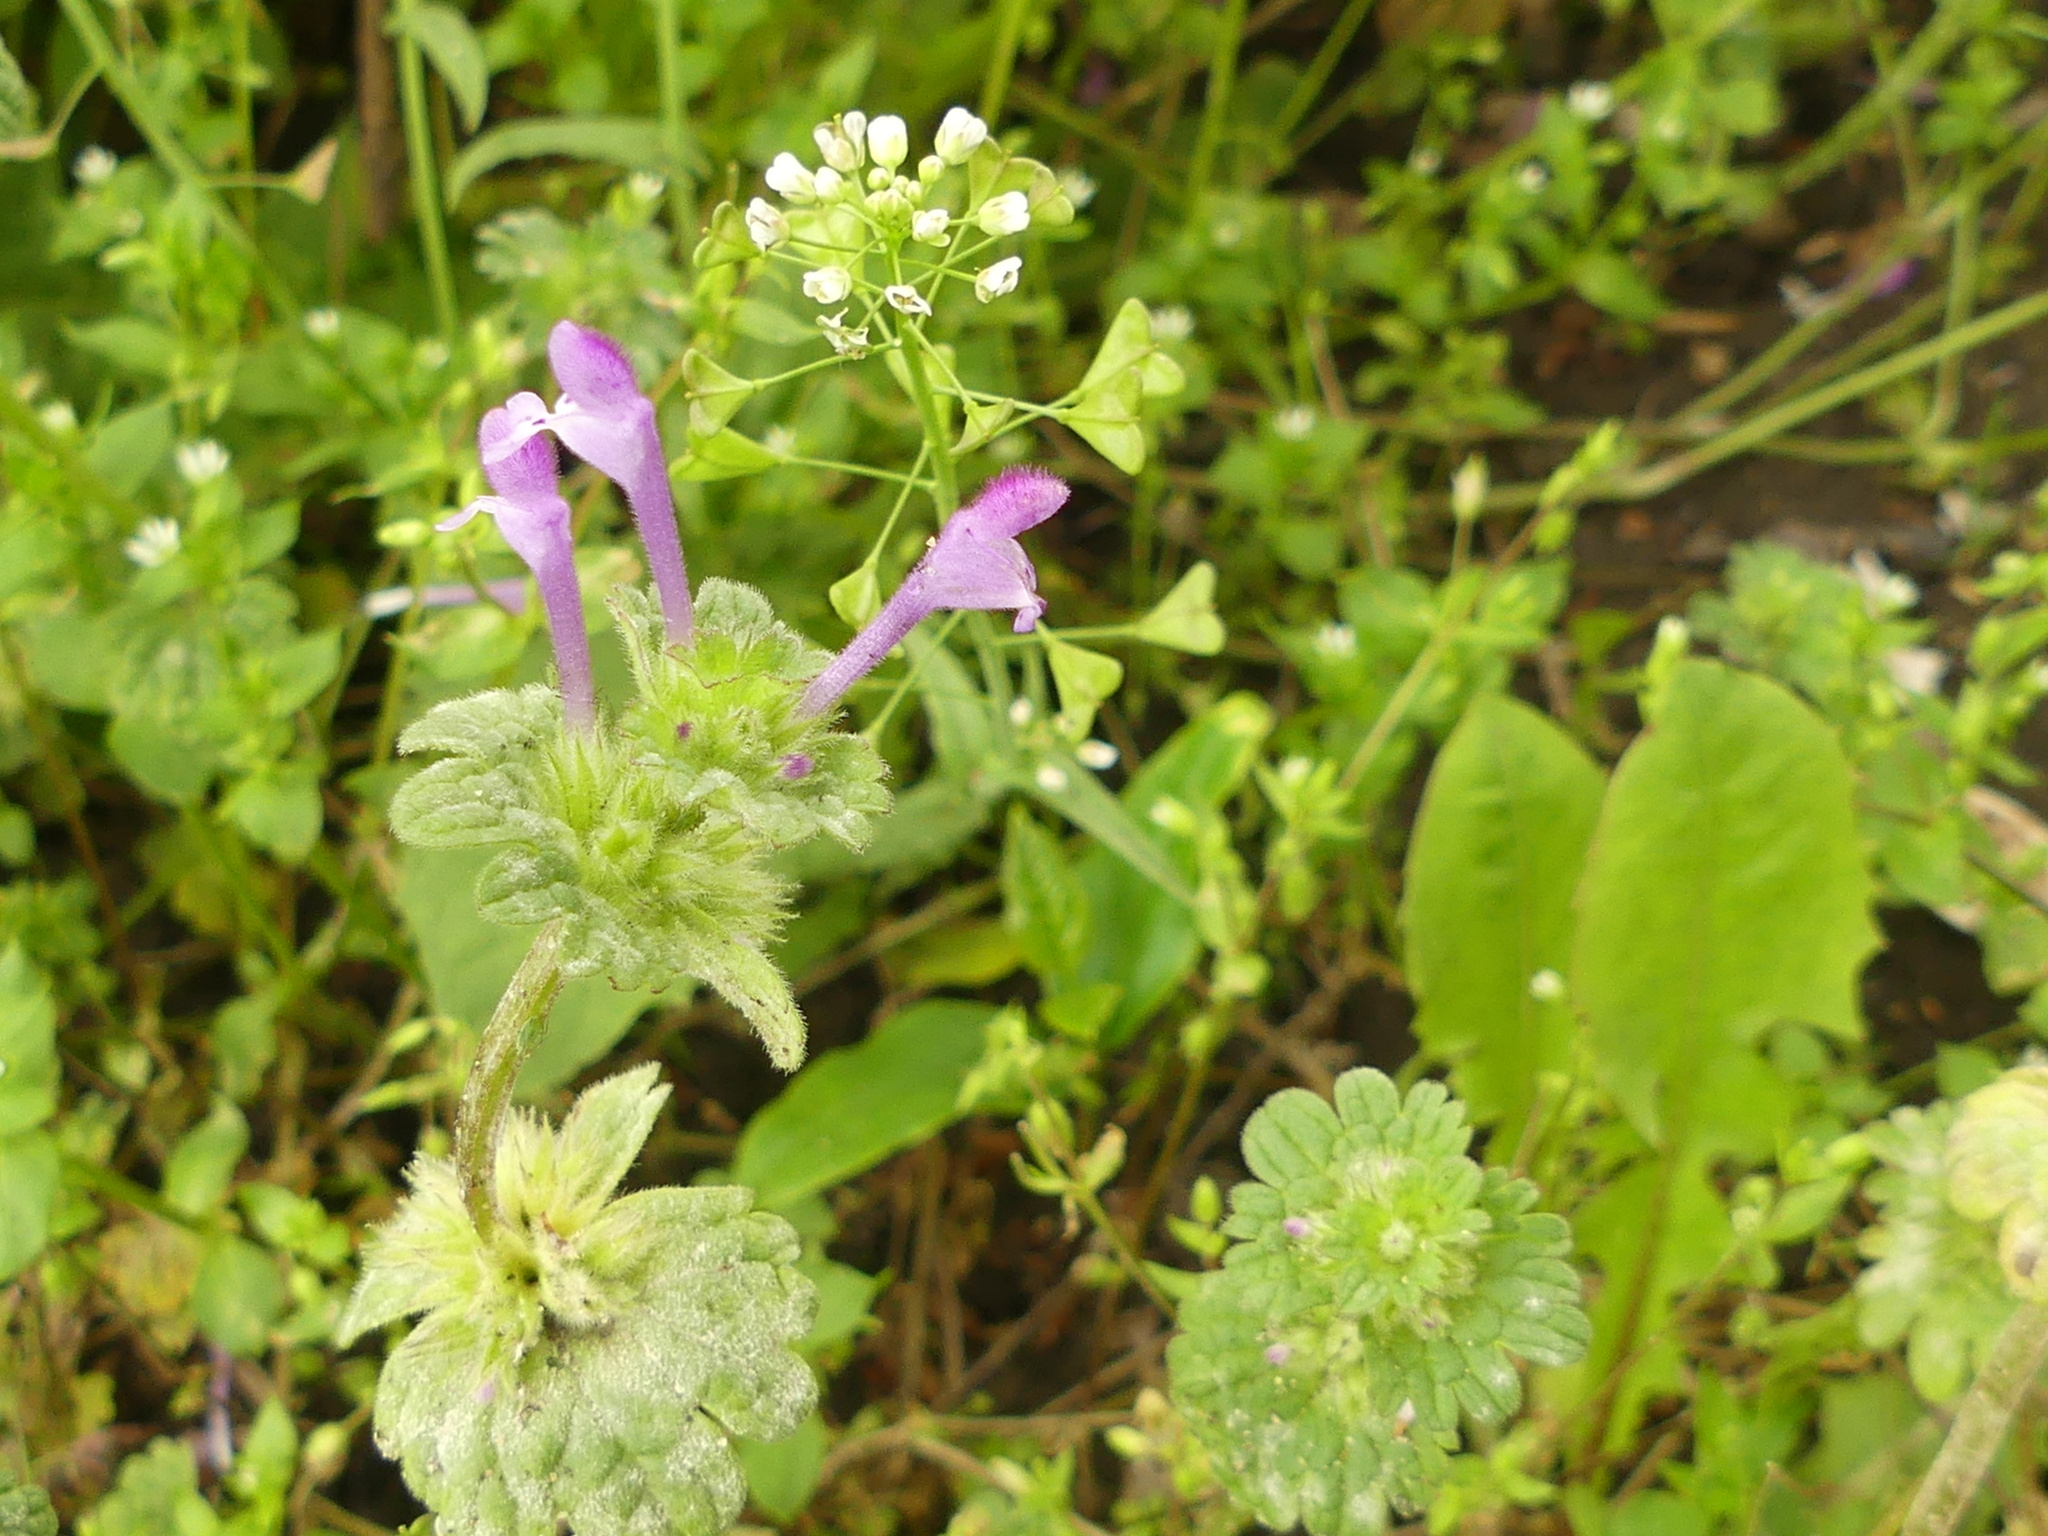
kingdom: Plantae
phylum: Tracheophyta
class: Magnoliopsida
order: Lamiales
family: Lamiaceae
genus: Lamium
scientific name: Lamium amplexicaule
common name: Henbit dead-nettle
